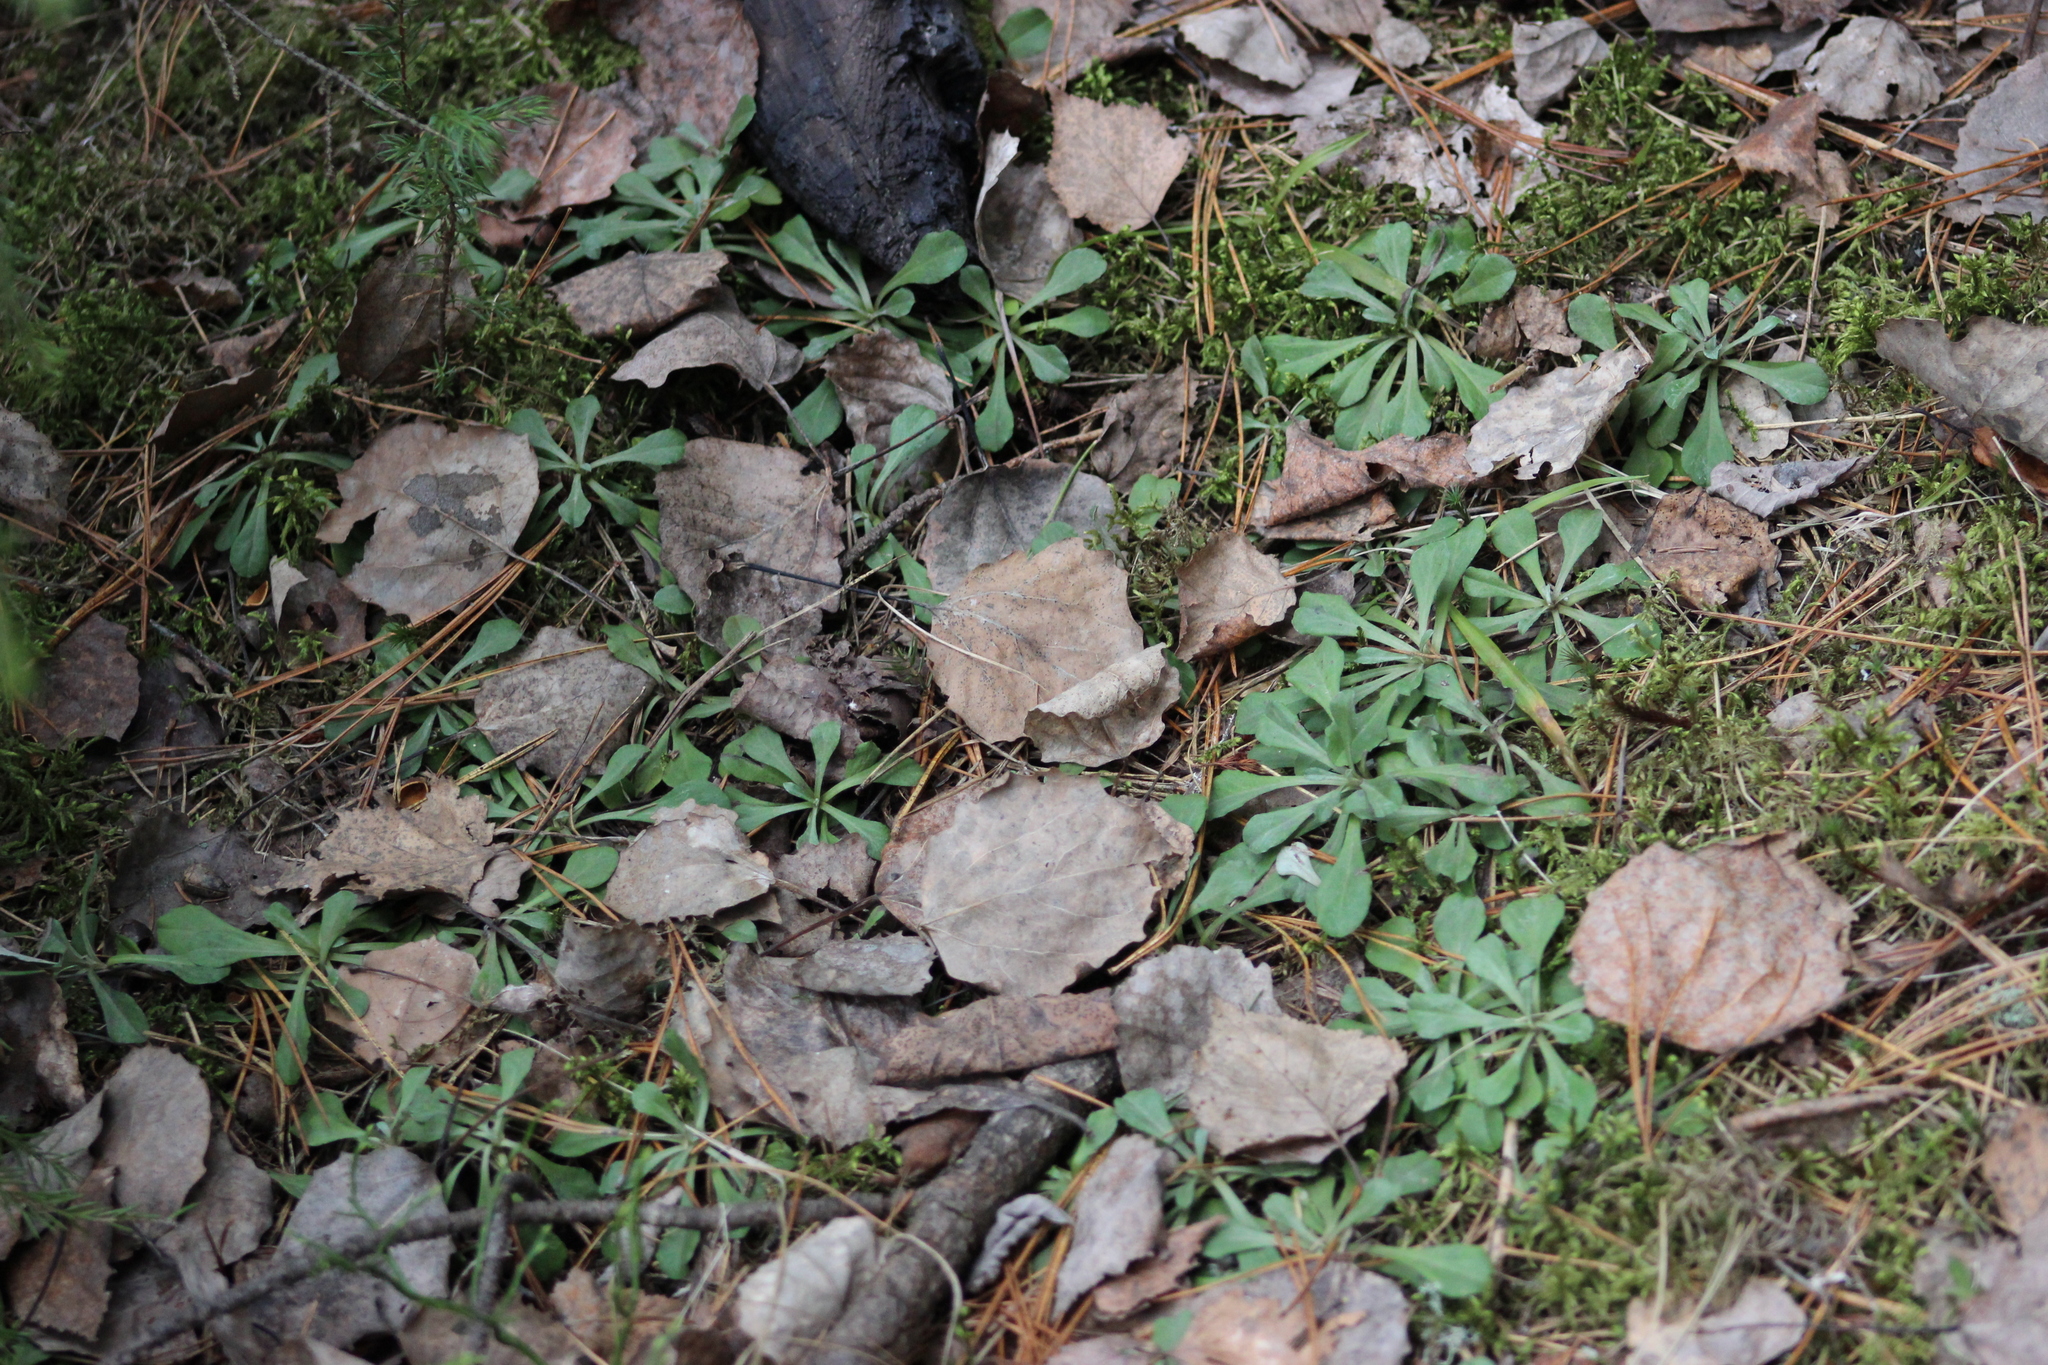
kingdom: Plantae
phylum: Tracheophyta
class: Magnoliopsida
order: Asterales
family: Asteraceae
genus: Antennaria
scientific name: Antennaria dioica
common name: Mountain everlasting
